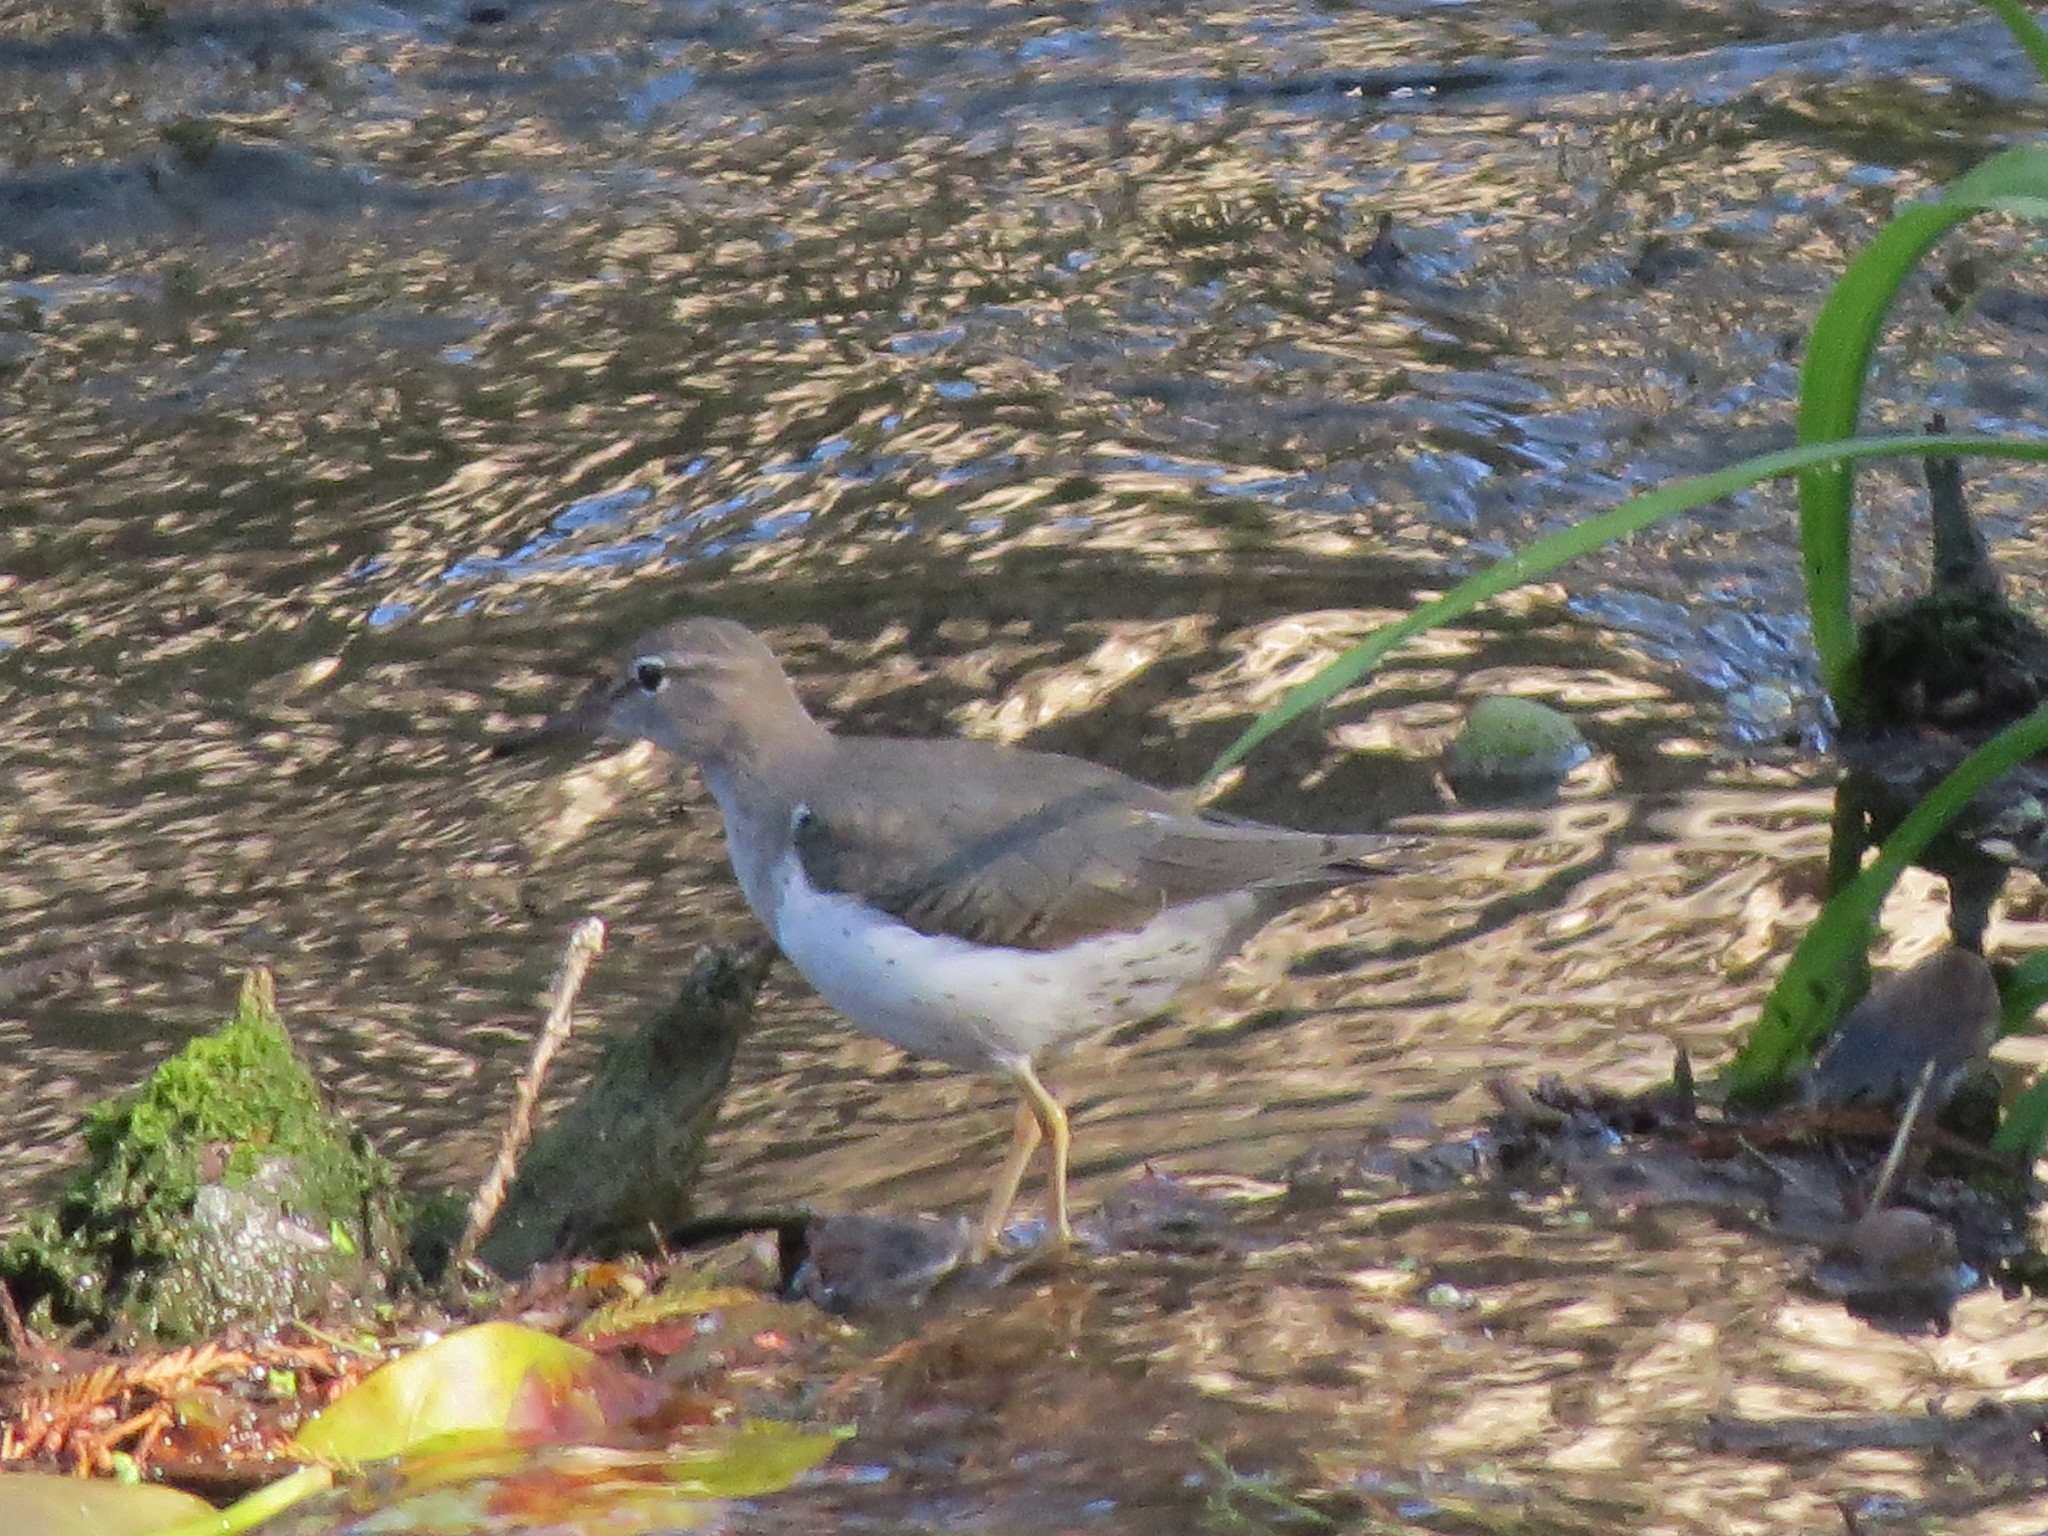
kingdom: Animalia
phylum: Chordata
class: Aves
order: Charadriiformes
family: Scolopacidae
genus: Actitis
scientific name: Actitis macularius
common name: Spotted sandpiper
